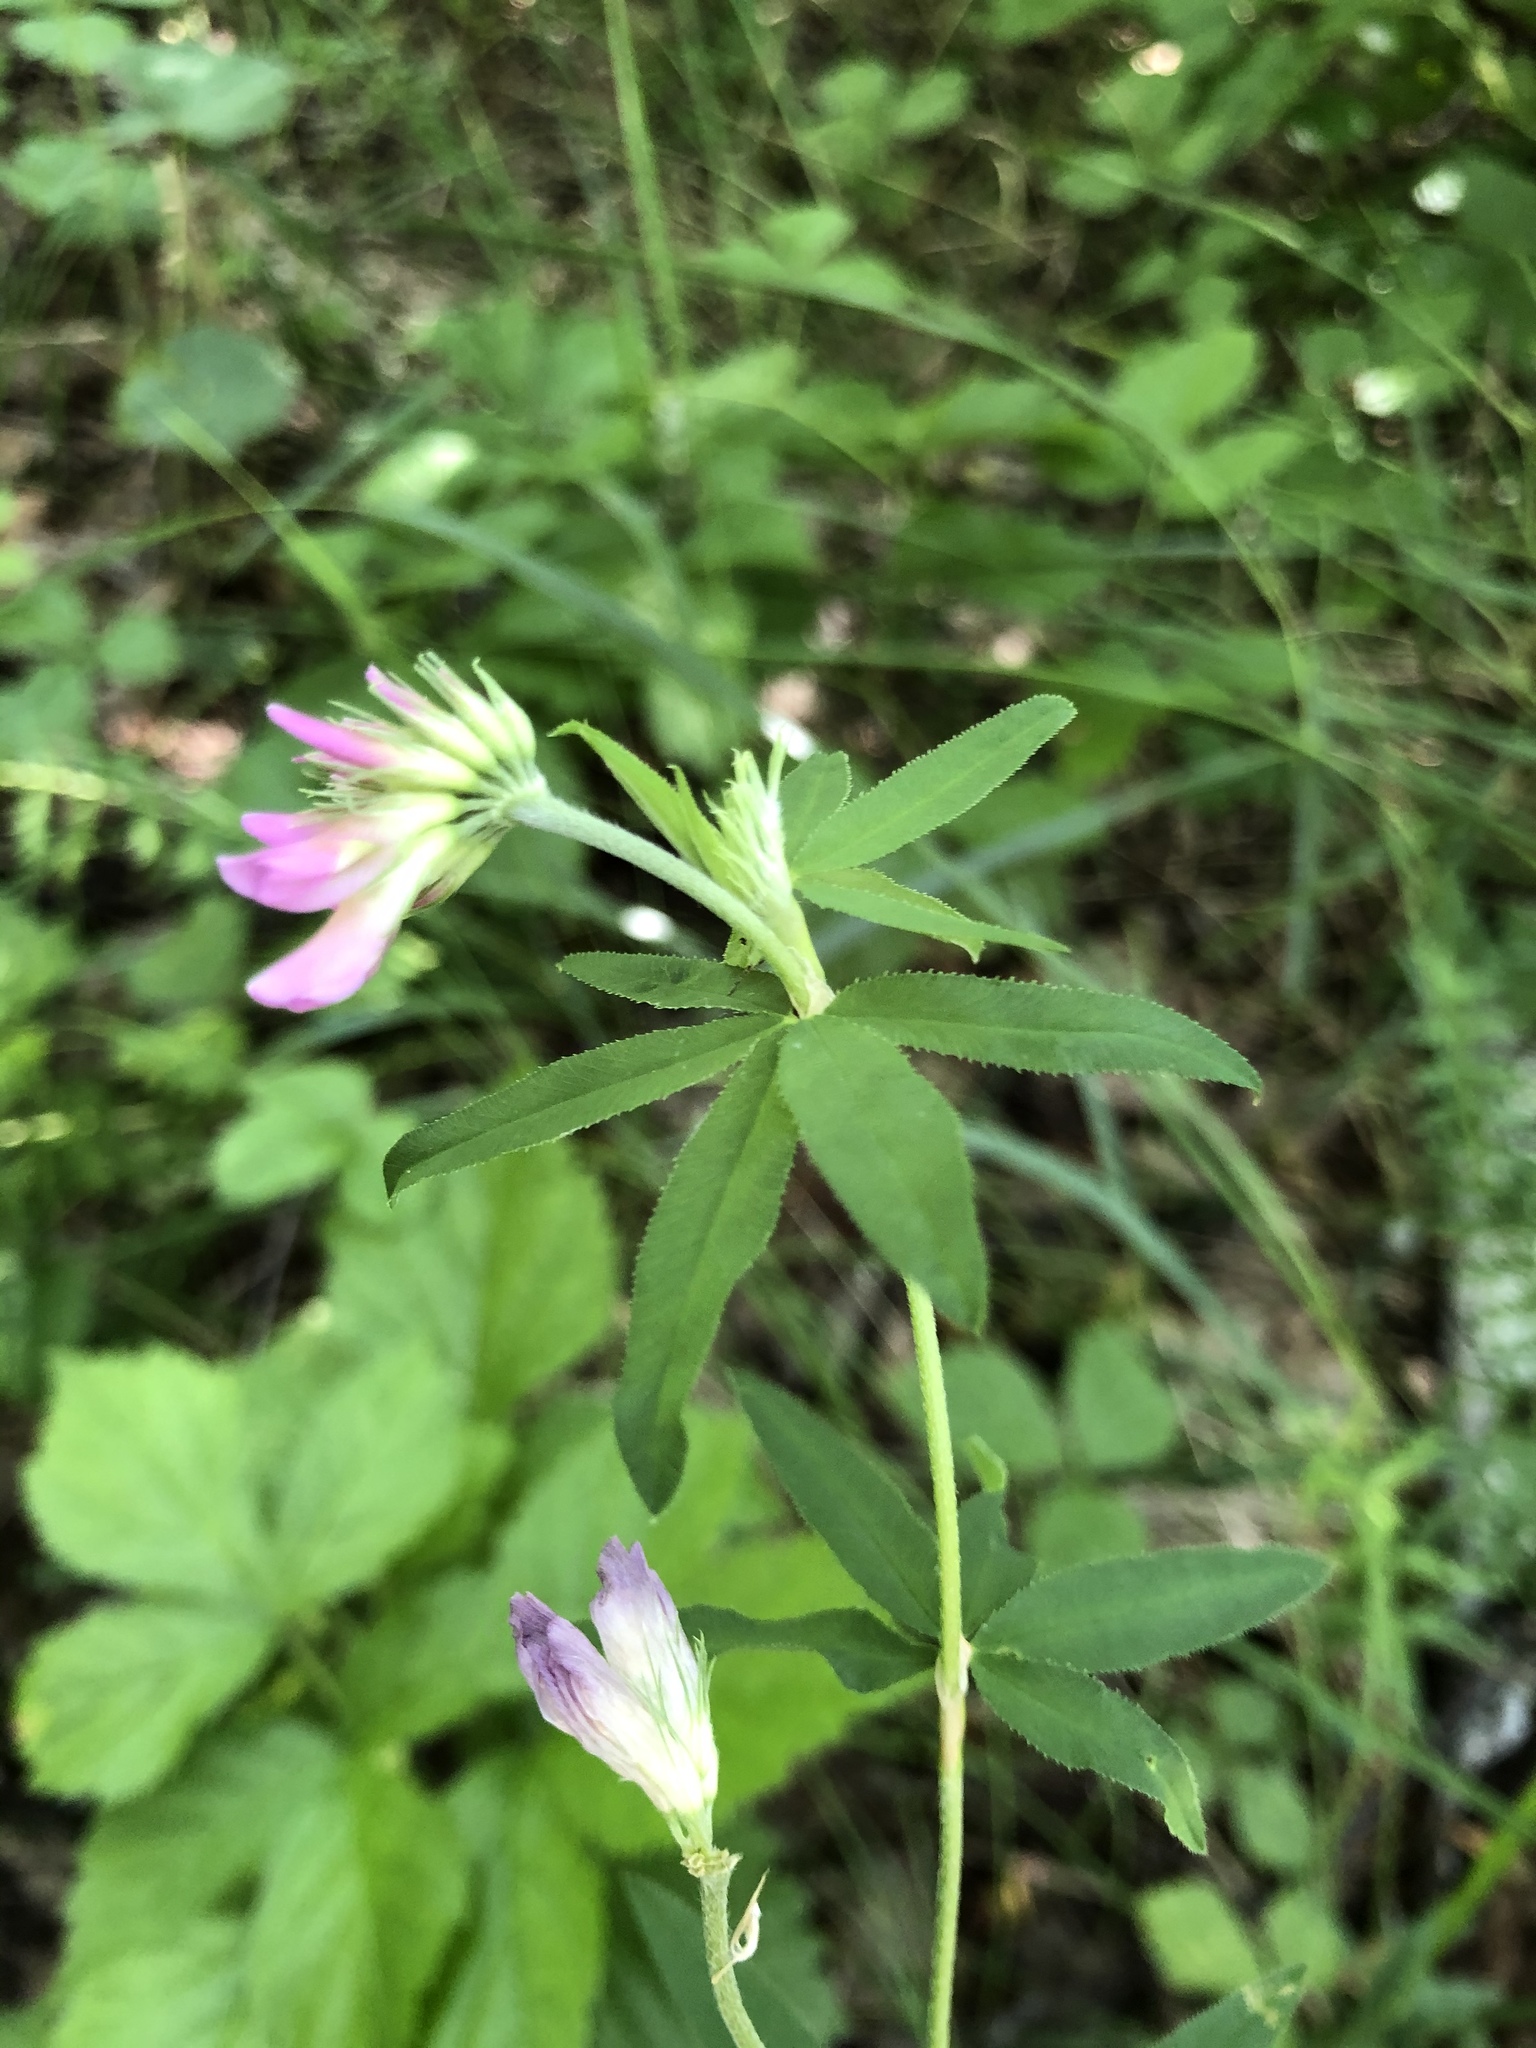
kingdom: Plantae
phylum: Tracheophyta
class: Magnoliopsida
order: Fabales
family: Fabaceae
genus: Trifolium
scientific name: Trifolium lupinaster
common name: Lupine clover
